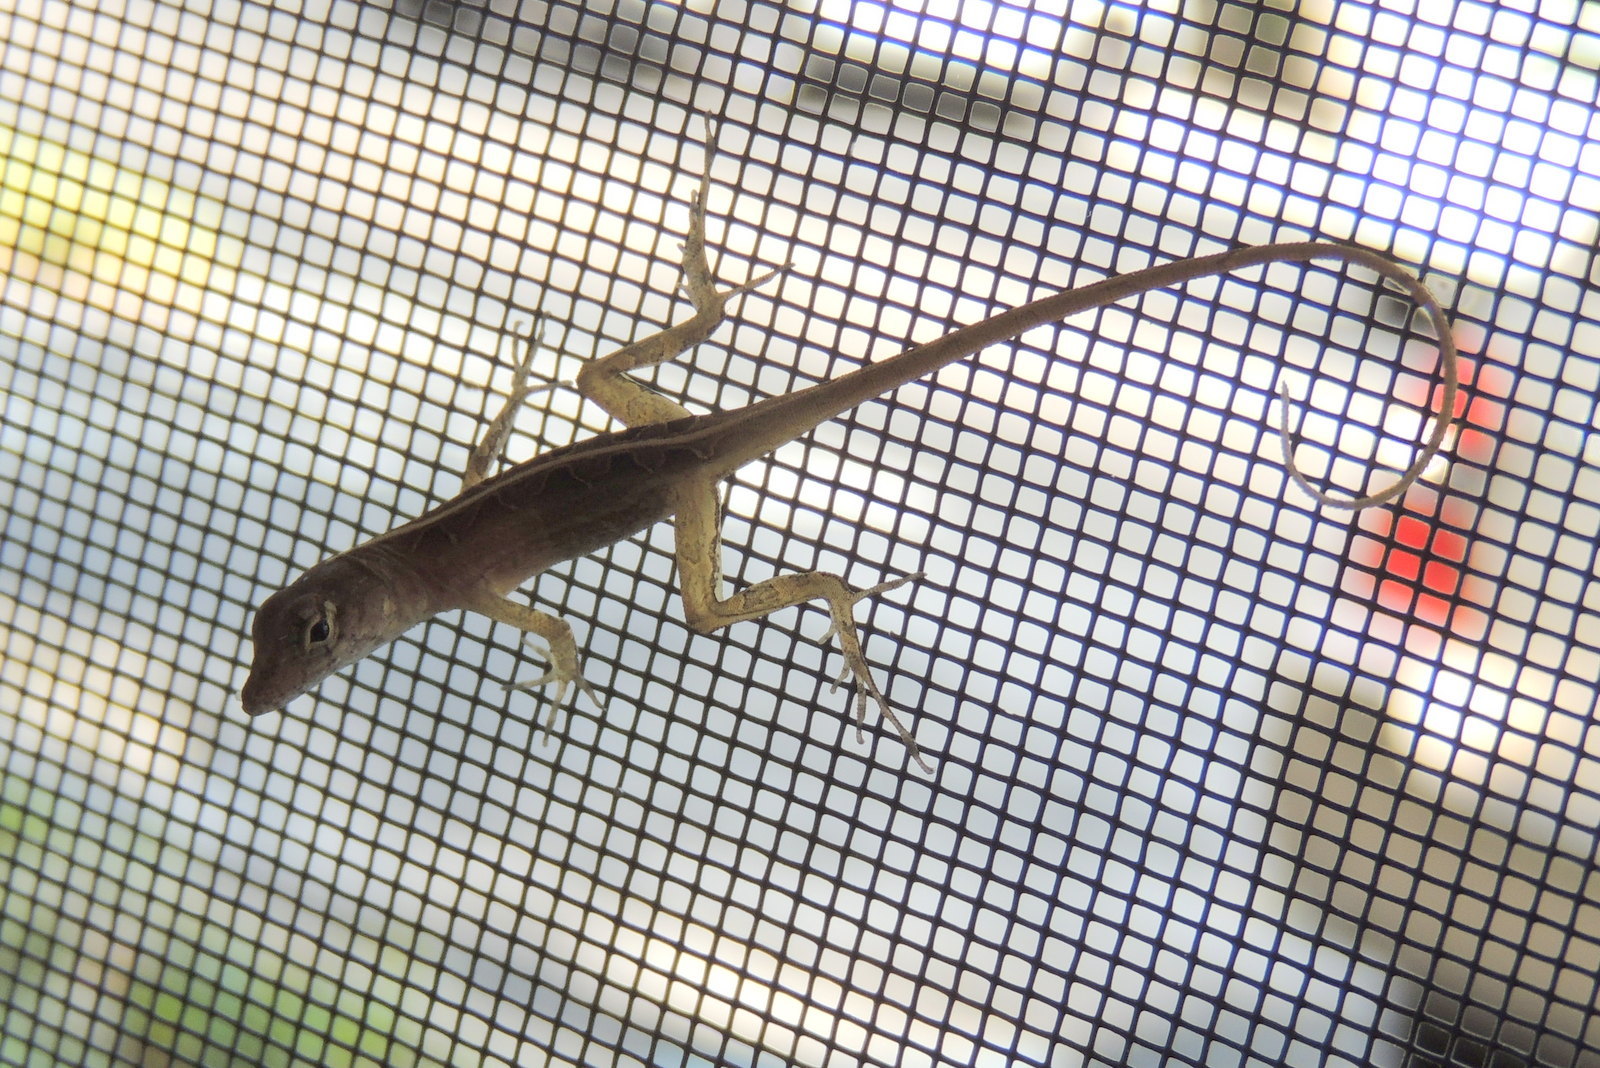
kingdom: Animalia
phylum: Chordata
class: Squamata
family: Dactyloidae
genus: Anolis
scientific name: Anolis sagrei
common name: Brown anole
